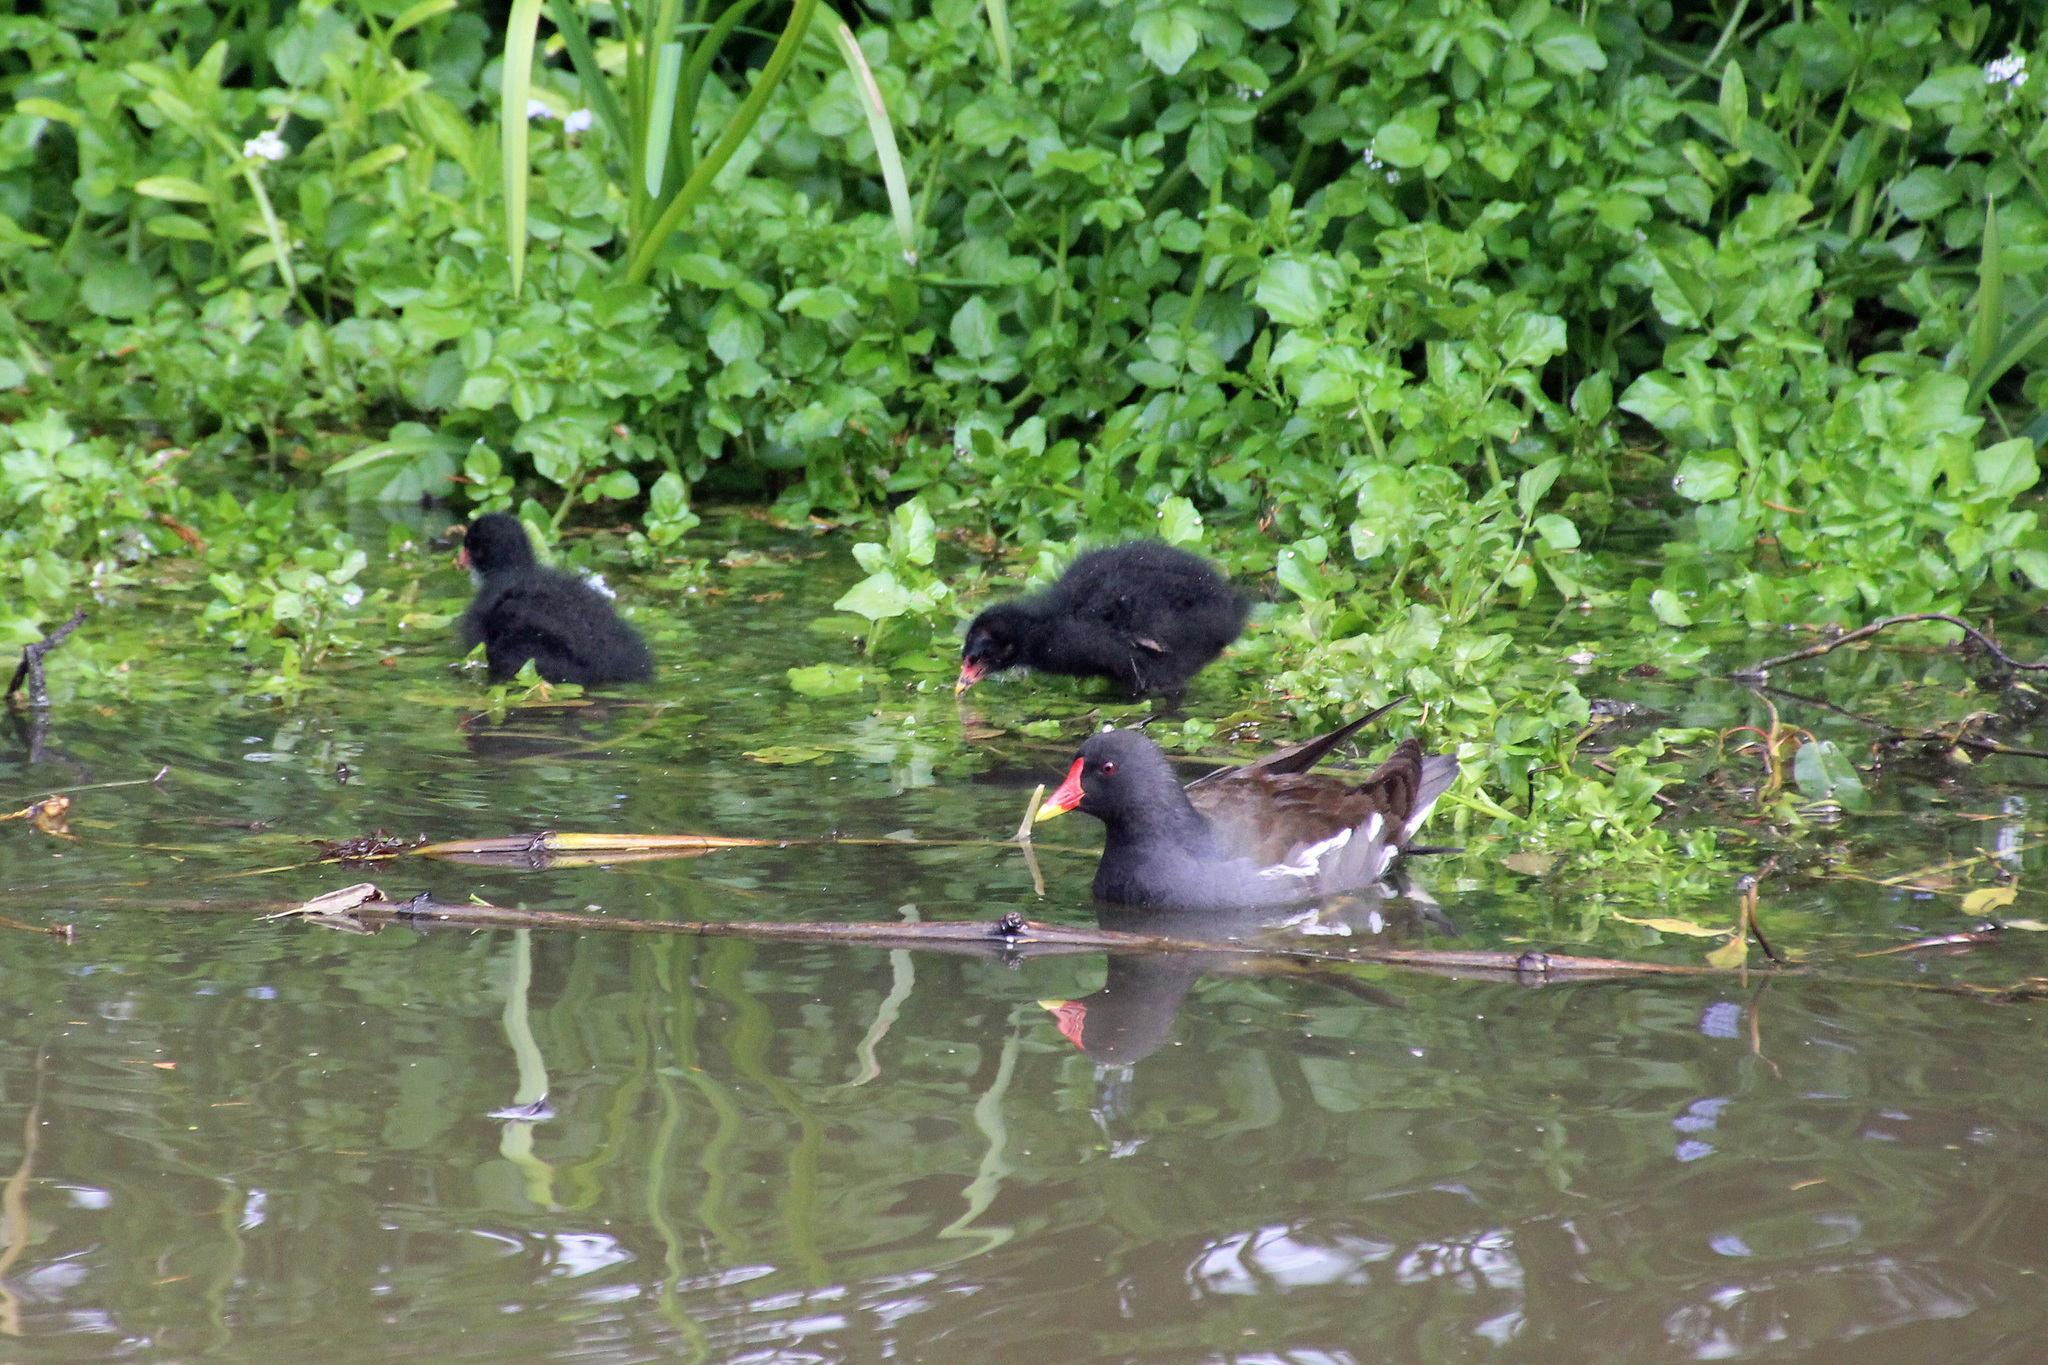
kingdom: Animalia
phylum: Chordata
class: Aves
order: Gruiformes
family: Rallidae
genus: Gallinula
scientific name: Gallinula chloropus
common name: Common moorhen
